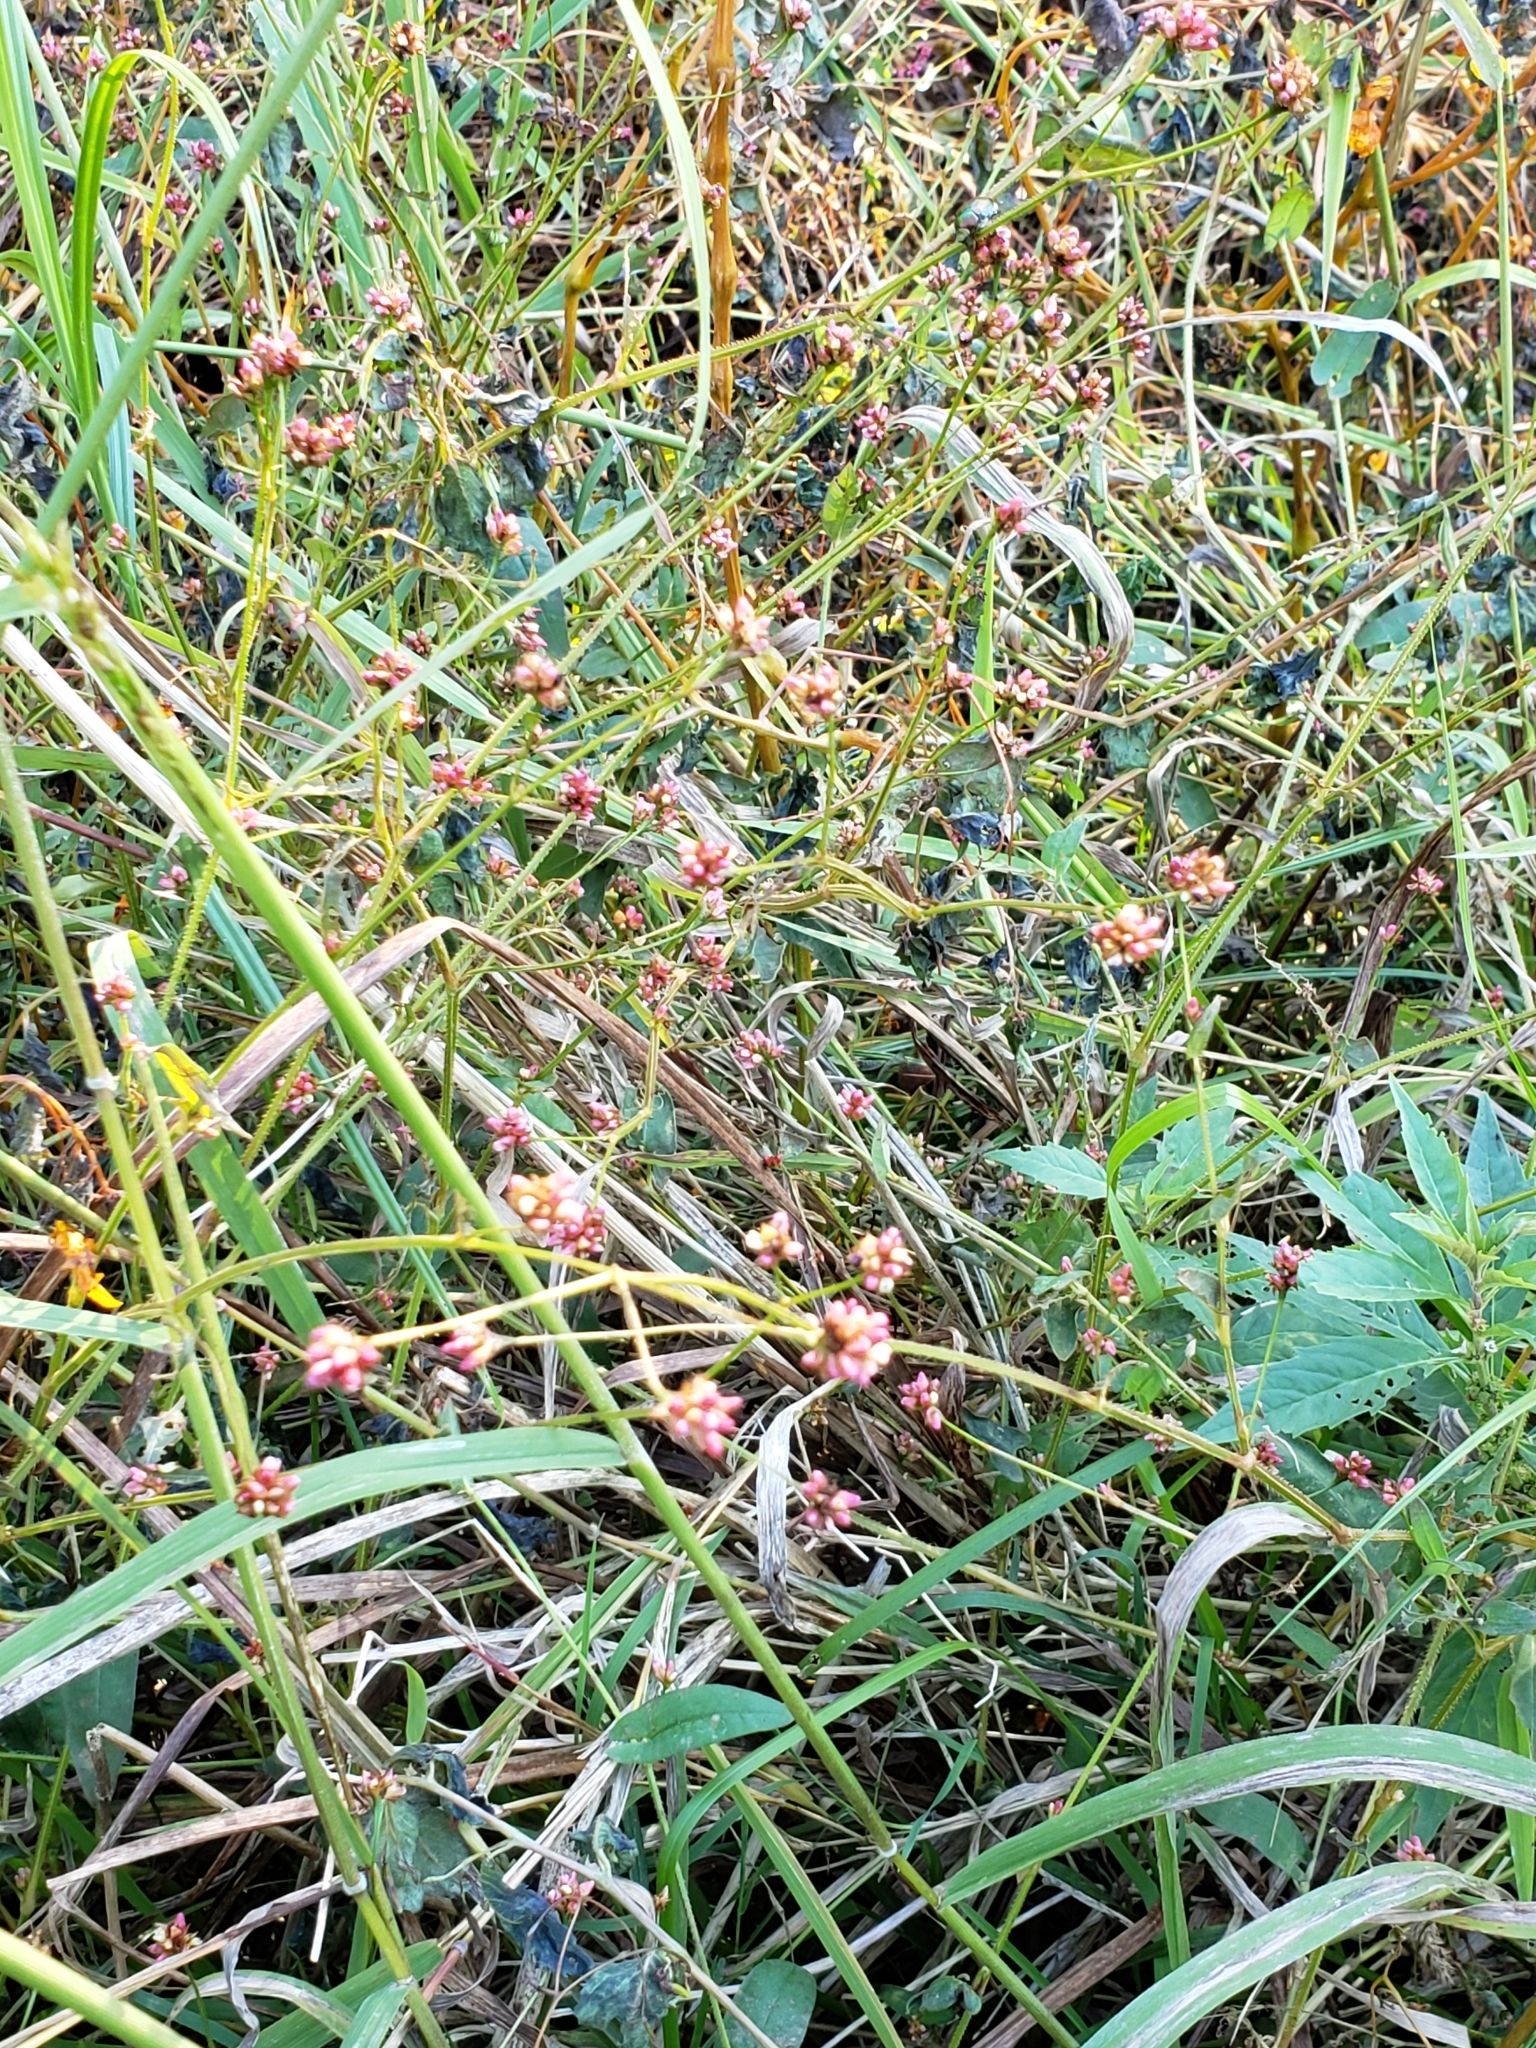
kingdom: Plantae
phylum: Tracheophyta
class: Magnoliopsida
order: Caryophyllales
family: Polygonaceae
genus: Persicaria
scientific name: Persicaria sagittata
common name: American tearthumb
